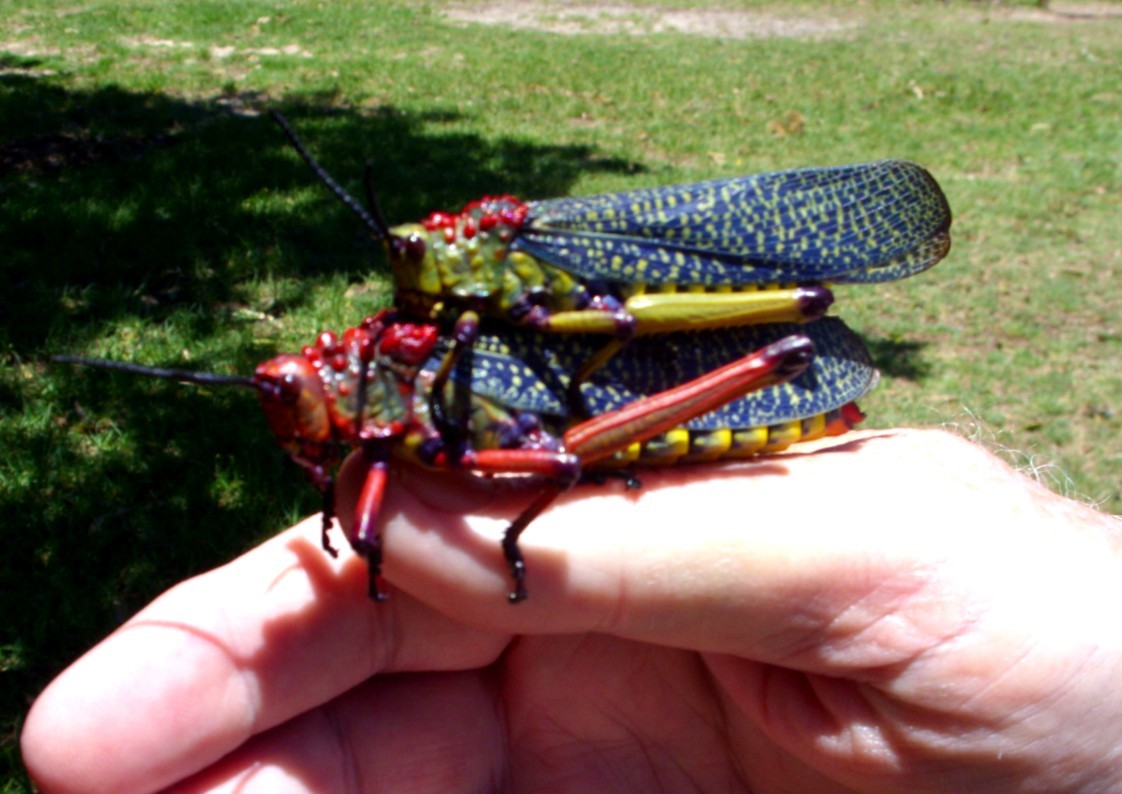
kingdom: Animalia
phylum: Arthropoda
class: Insecta
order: Orthoptera
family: Pyrgomorphidae
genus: Phymateus
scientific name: Phymateus morbillosus
